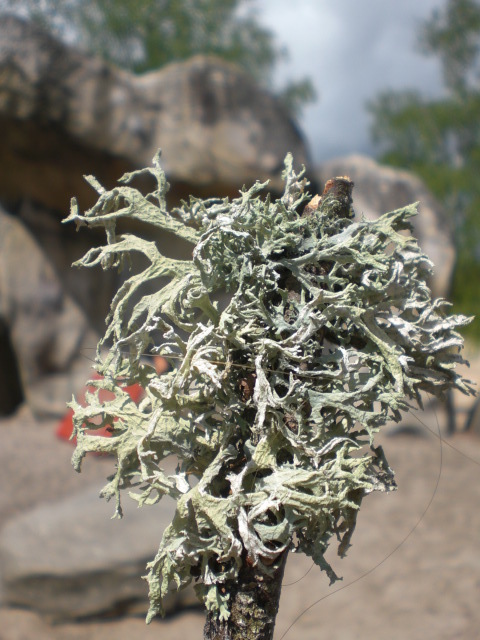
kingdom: Fungi
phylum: Ascomycota
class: Lecanoromycetes
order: Lecanorales
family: Parmeliaceae
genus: Evernia
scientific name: Evernia prunastri
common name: Oak moss
